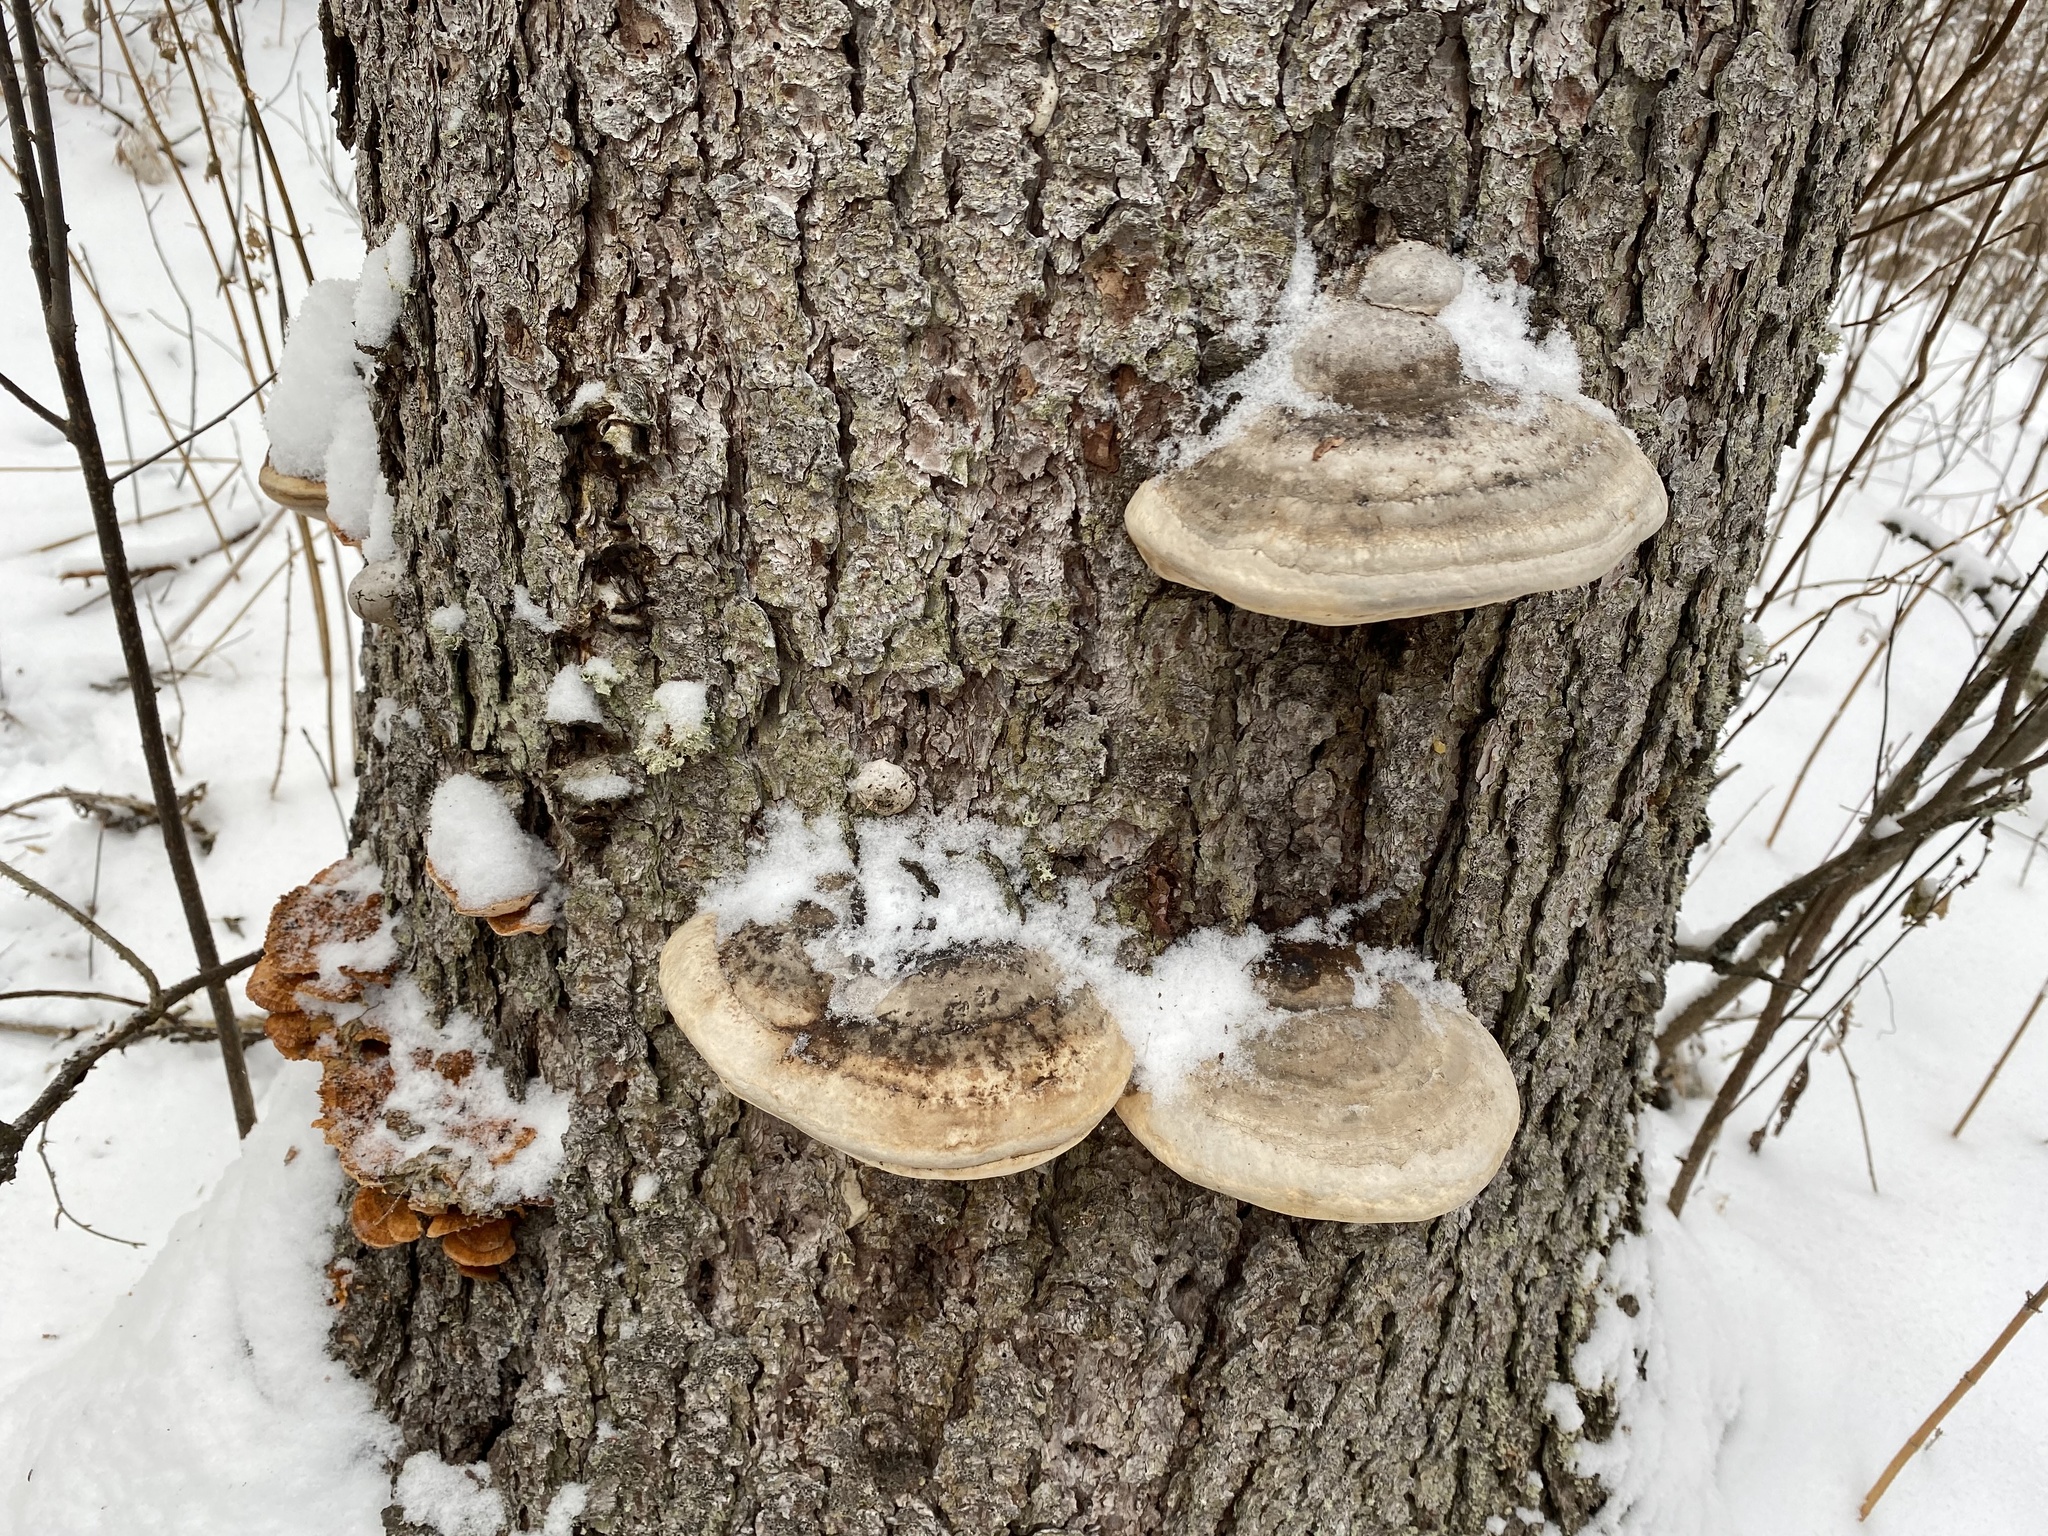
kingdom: Fungi
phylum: Basidiomycota
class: Agaricomycetes
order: Polyporales
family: Polyporaceae
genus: Fomes
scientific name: Fomes fomentarius
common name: Hoof fungus
